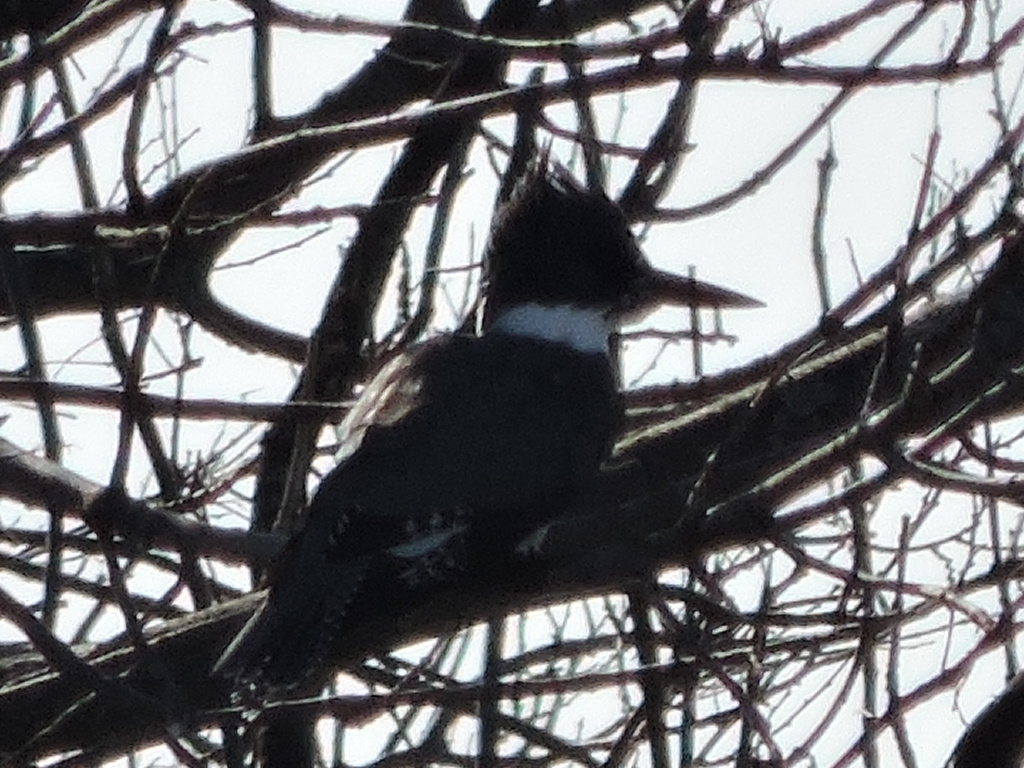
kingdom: Animalia
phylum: Chordata
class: Aves
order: Coraciiformes
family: Alcedinidae
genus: Megaceryle
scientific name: Megaceryle alcyon
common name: Belted kingfisher
